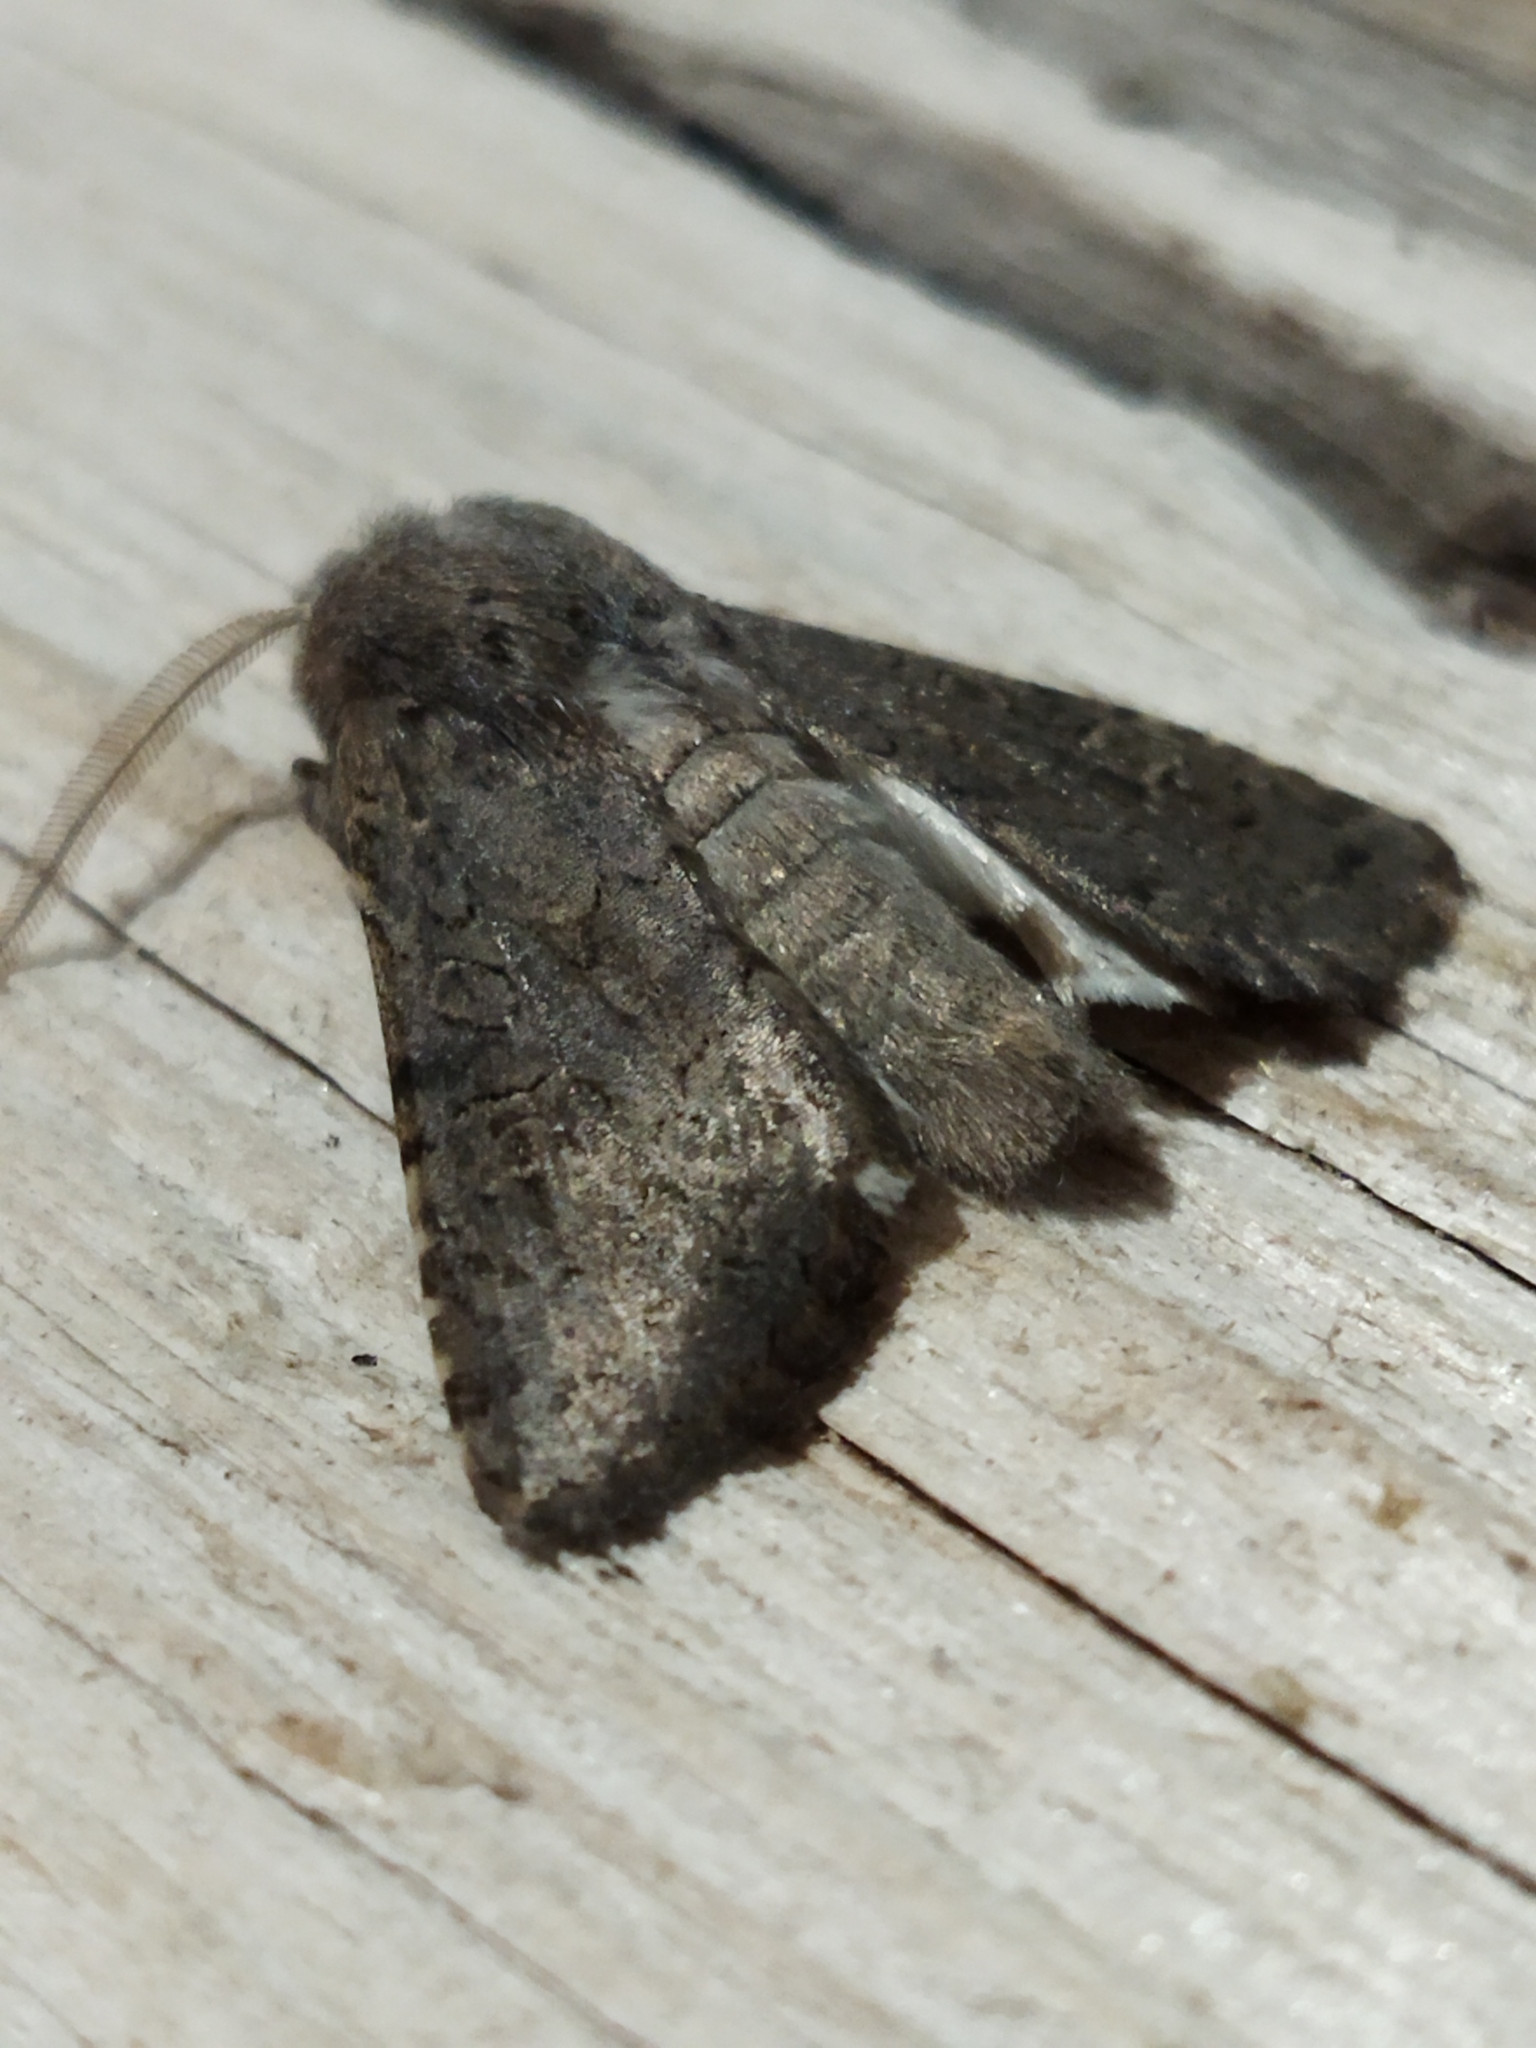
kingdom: Animalia
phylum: Arthropoda
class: Insecta
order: Lepidoptera
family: Noctuidae
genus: Aporophyla
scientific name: Aporophyla lutulenta
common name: Deep-brown dart
